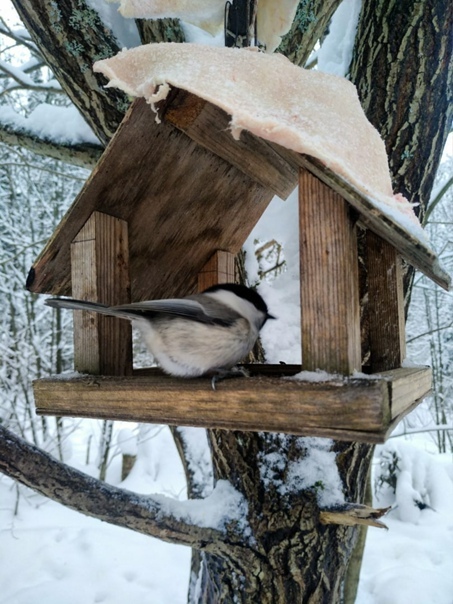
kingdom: Animalia
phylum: Chordata
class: Aves
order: Passeriformes
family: Paridae
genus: Poecile
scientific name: Poecile montanus
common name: Willow tit
